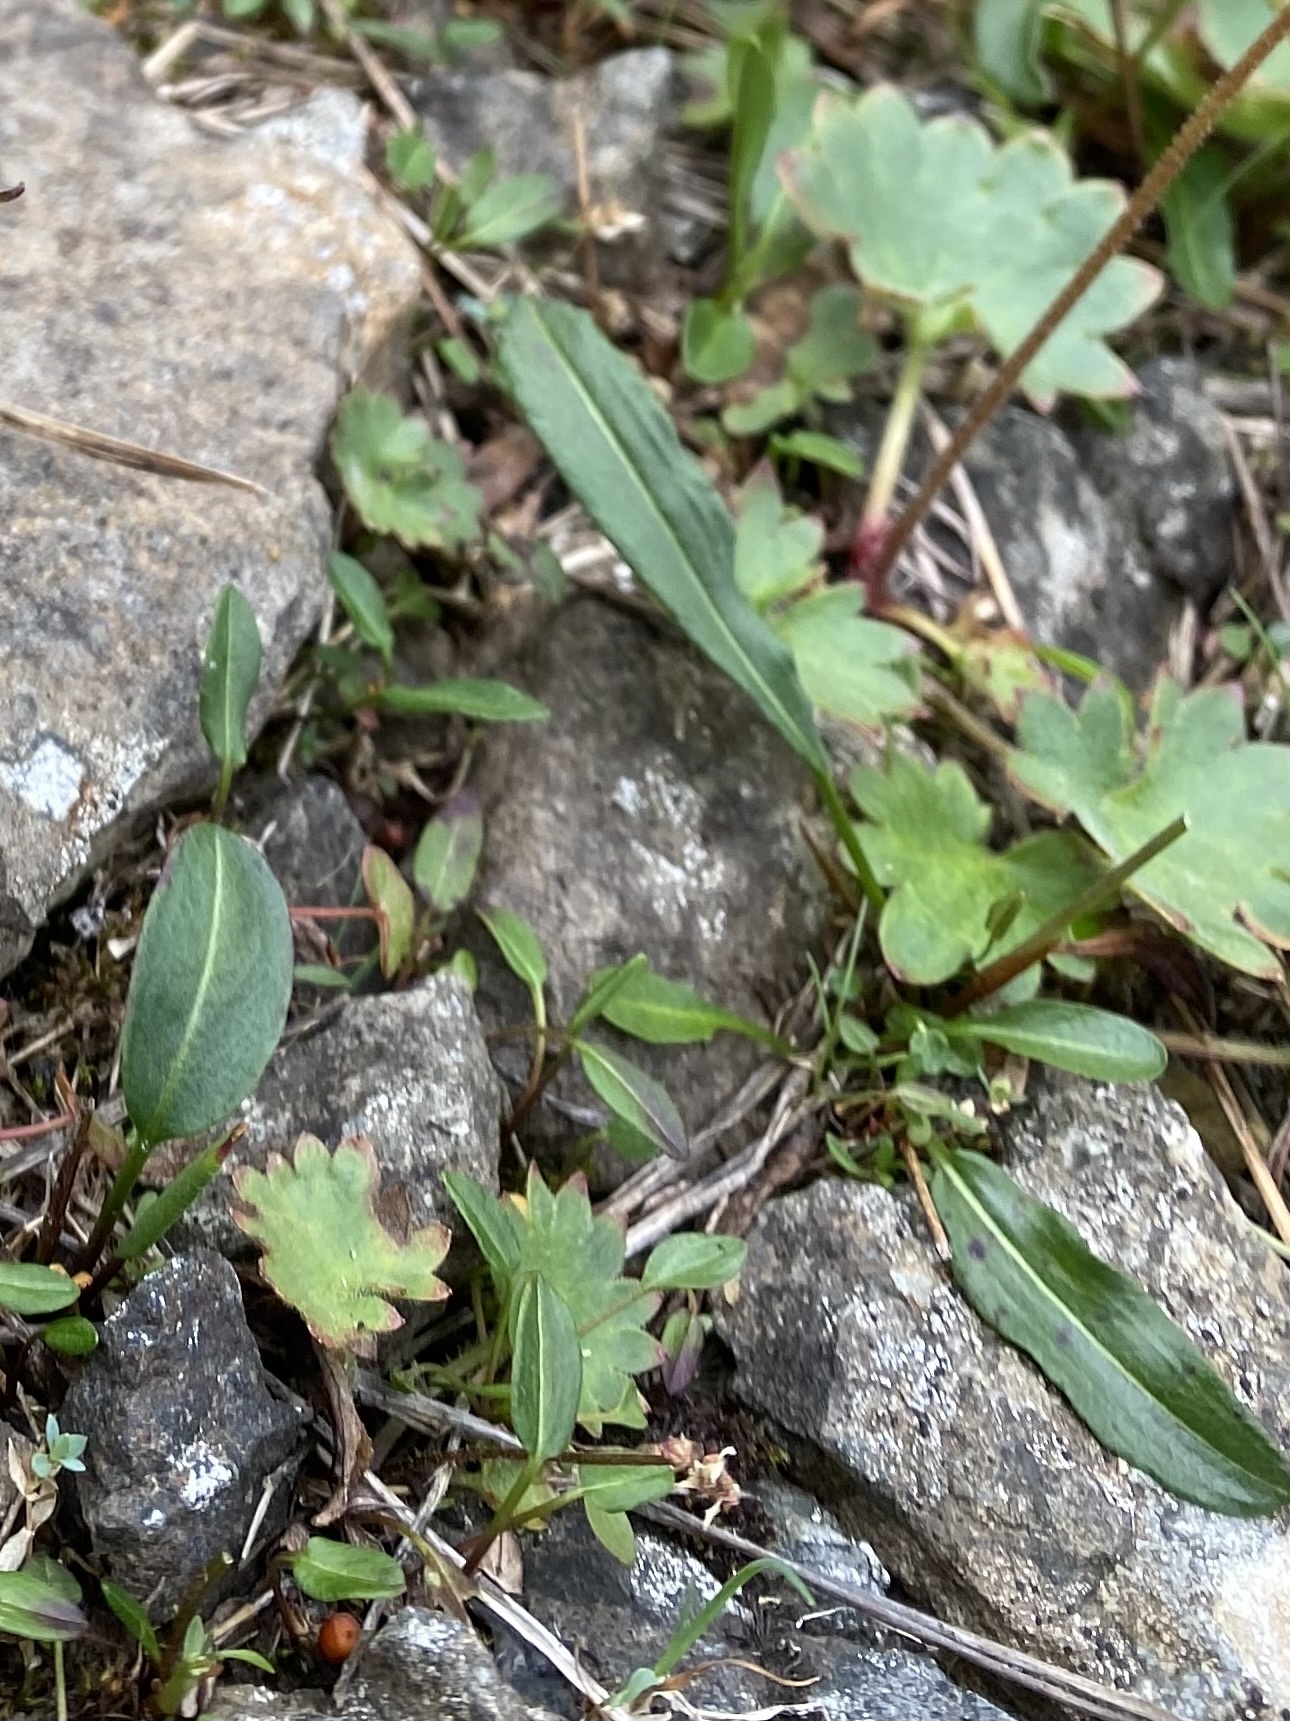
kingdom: Plantae
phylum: Tracheophyta
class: Magnoliopsida
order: Saxifragales
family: Saxifragaceae
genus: Micranthes
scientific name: Micranthes nelsoniana
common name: Nelson's saxifrage
